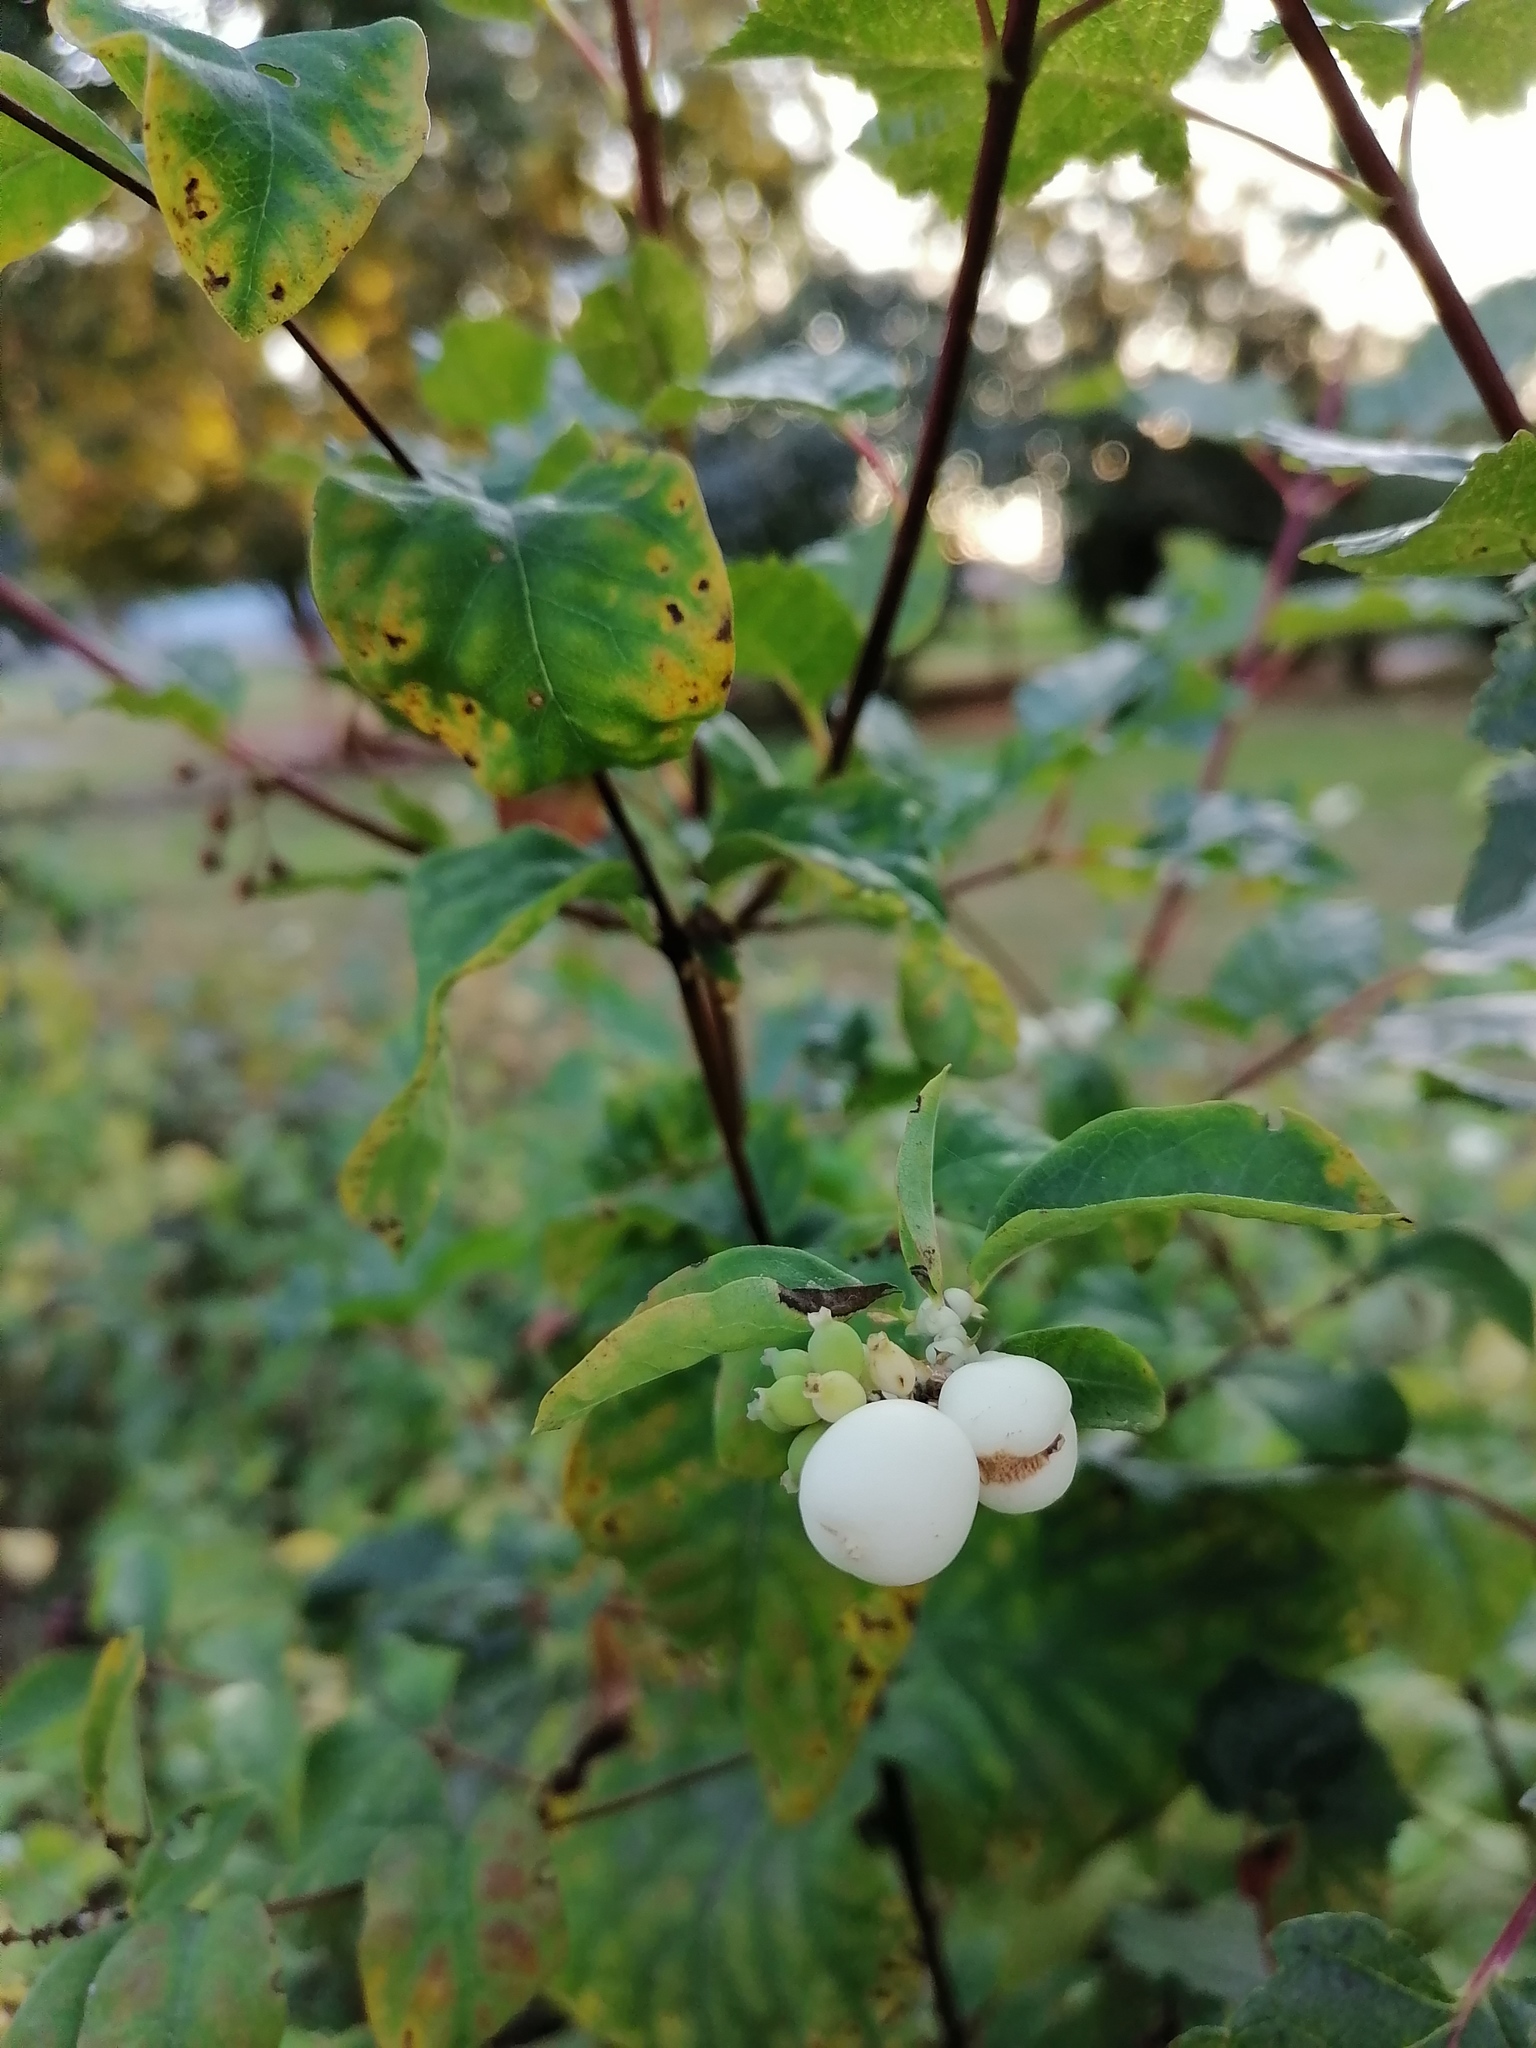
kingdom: Plantae
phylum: Tracheophyta
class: Magnoliopsida
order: Dipsacales
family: Caprifoliaceae
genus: Symphoricarpos
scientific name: Symphoricarpos albus
